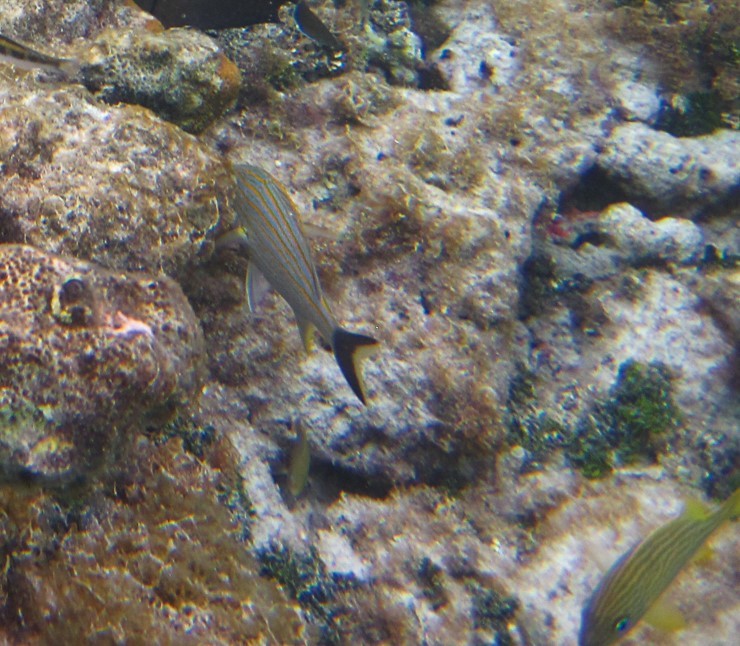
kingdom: Animalia
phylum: Chordata
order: Perciformes
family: Haemulidae
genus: Haemulon
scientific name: Haemulon sciurus
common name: Bluestriped grunt
